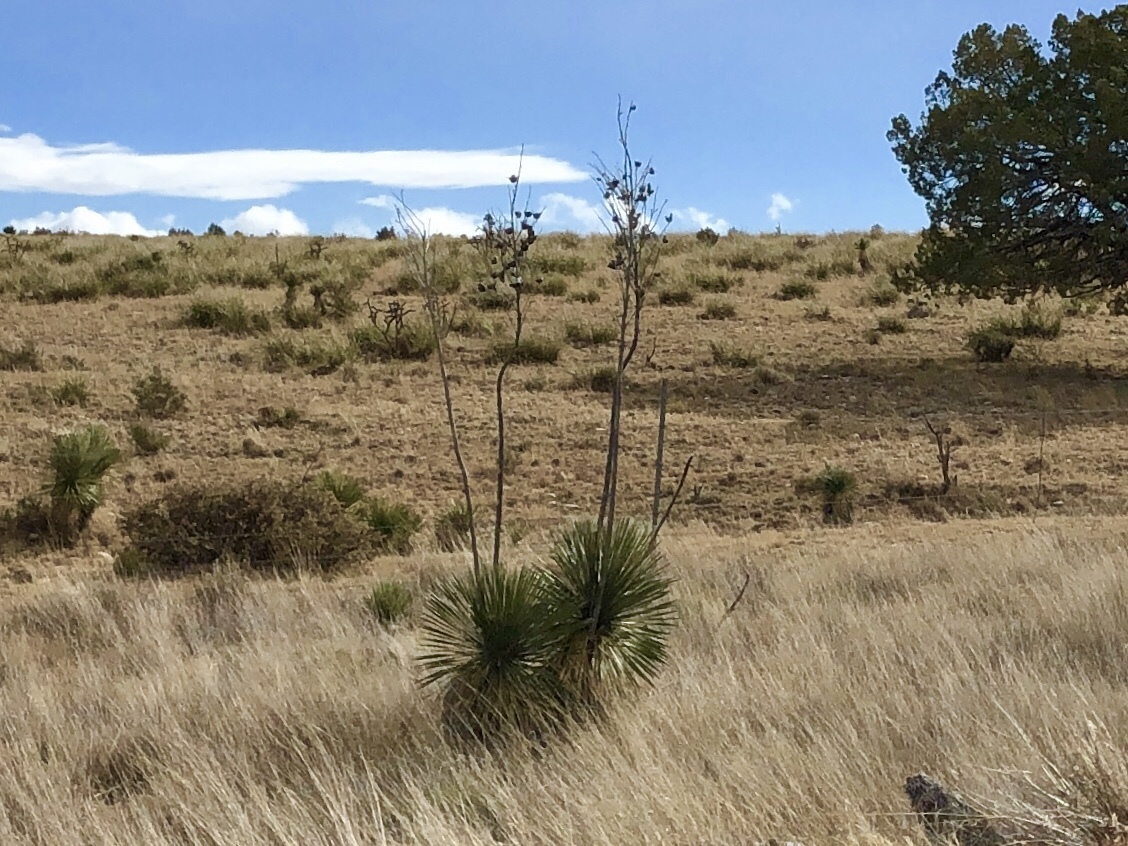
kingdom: Plantae
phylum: Tracheophyta
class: Liliopsida
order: Asparagales
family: Asparagaceae
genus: Yucca
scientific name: Yucca elata
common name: Palmella
